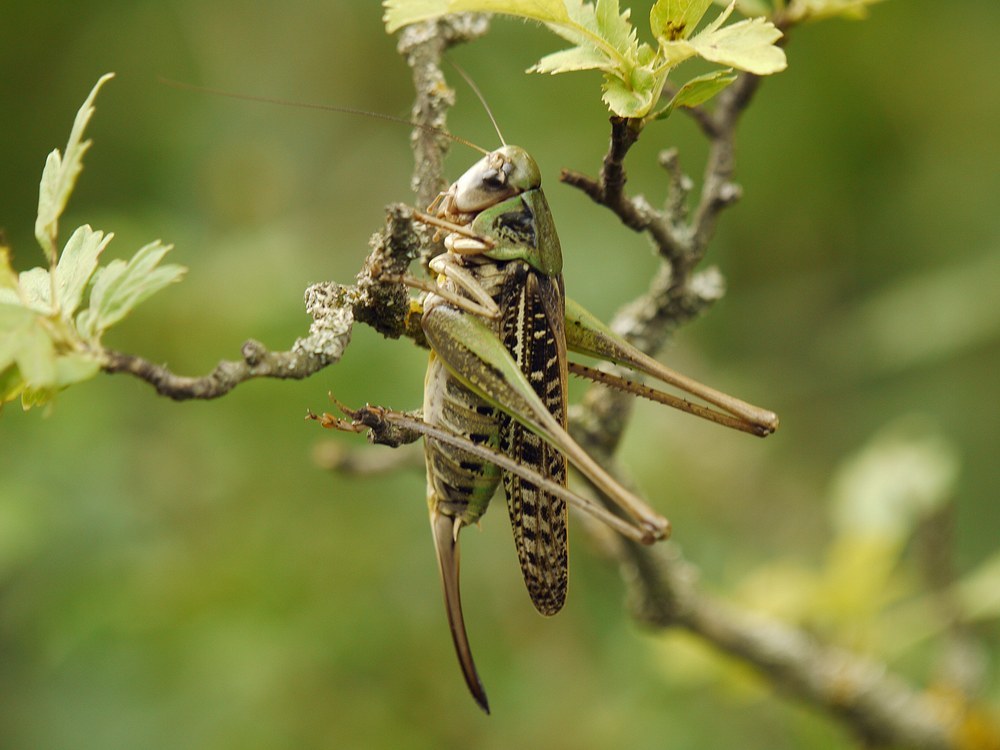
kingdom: Animalia
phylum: Arthropoda
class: Insecta
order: Orthoptera
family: Tettigoniidae
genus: Decticus
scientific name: Decticus verrucivorus
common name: Wart-biter
